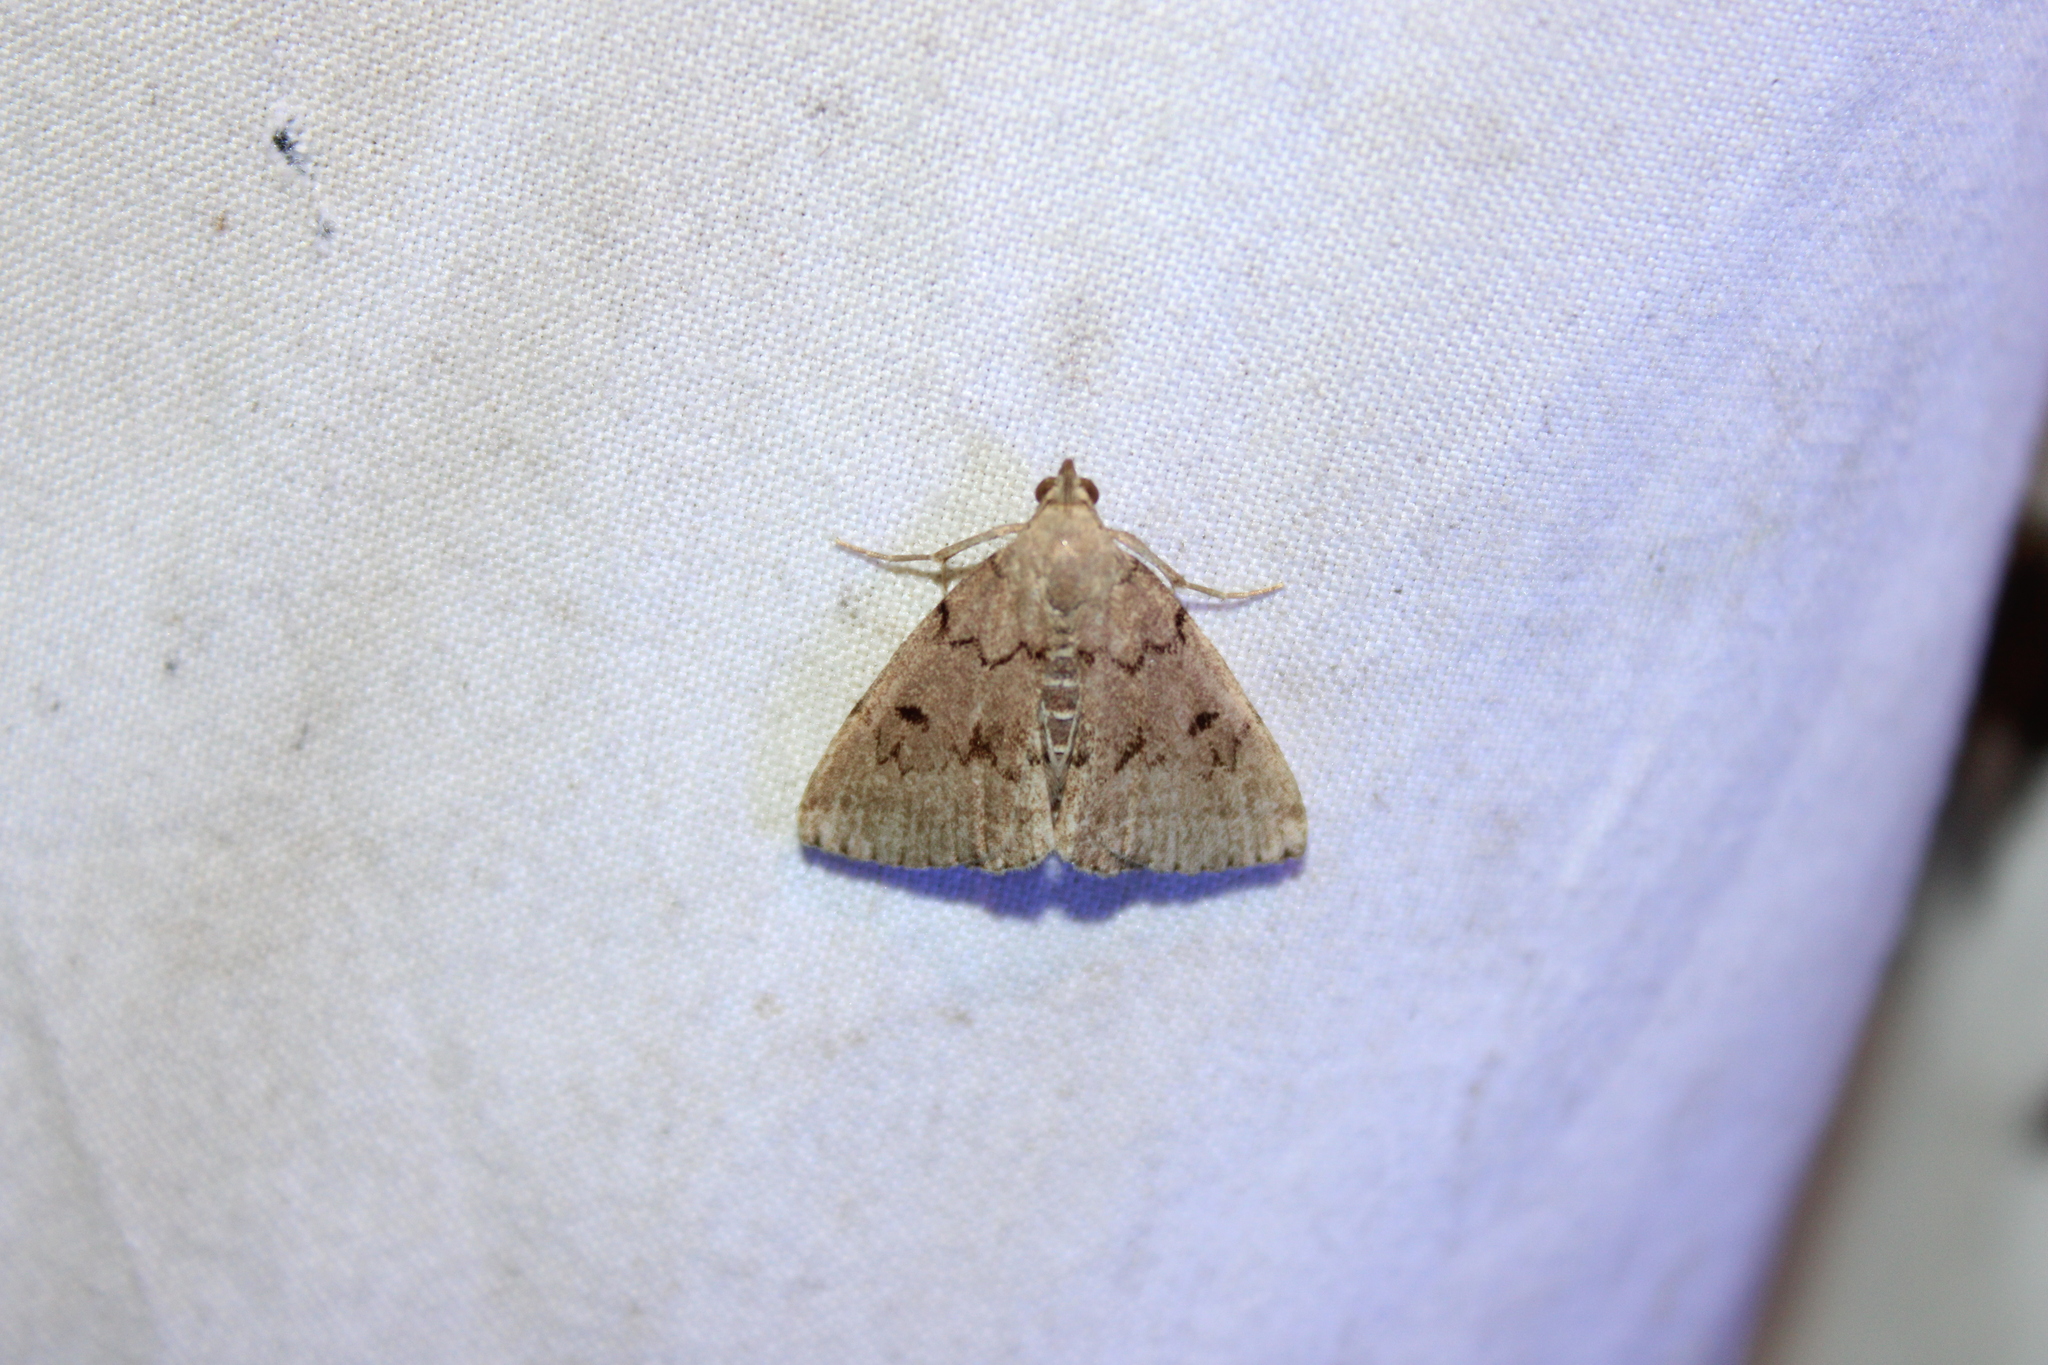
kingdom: Animalia
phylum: Arthropoda
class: Insecta
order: Lepidoptera
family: Erebidae
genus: Zanclognatha
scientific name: Zanclognatha dentata
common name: Toothed fan-foot
